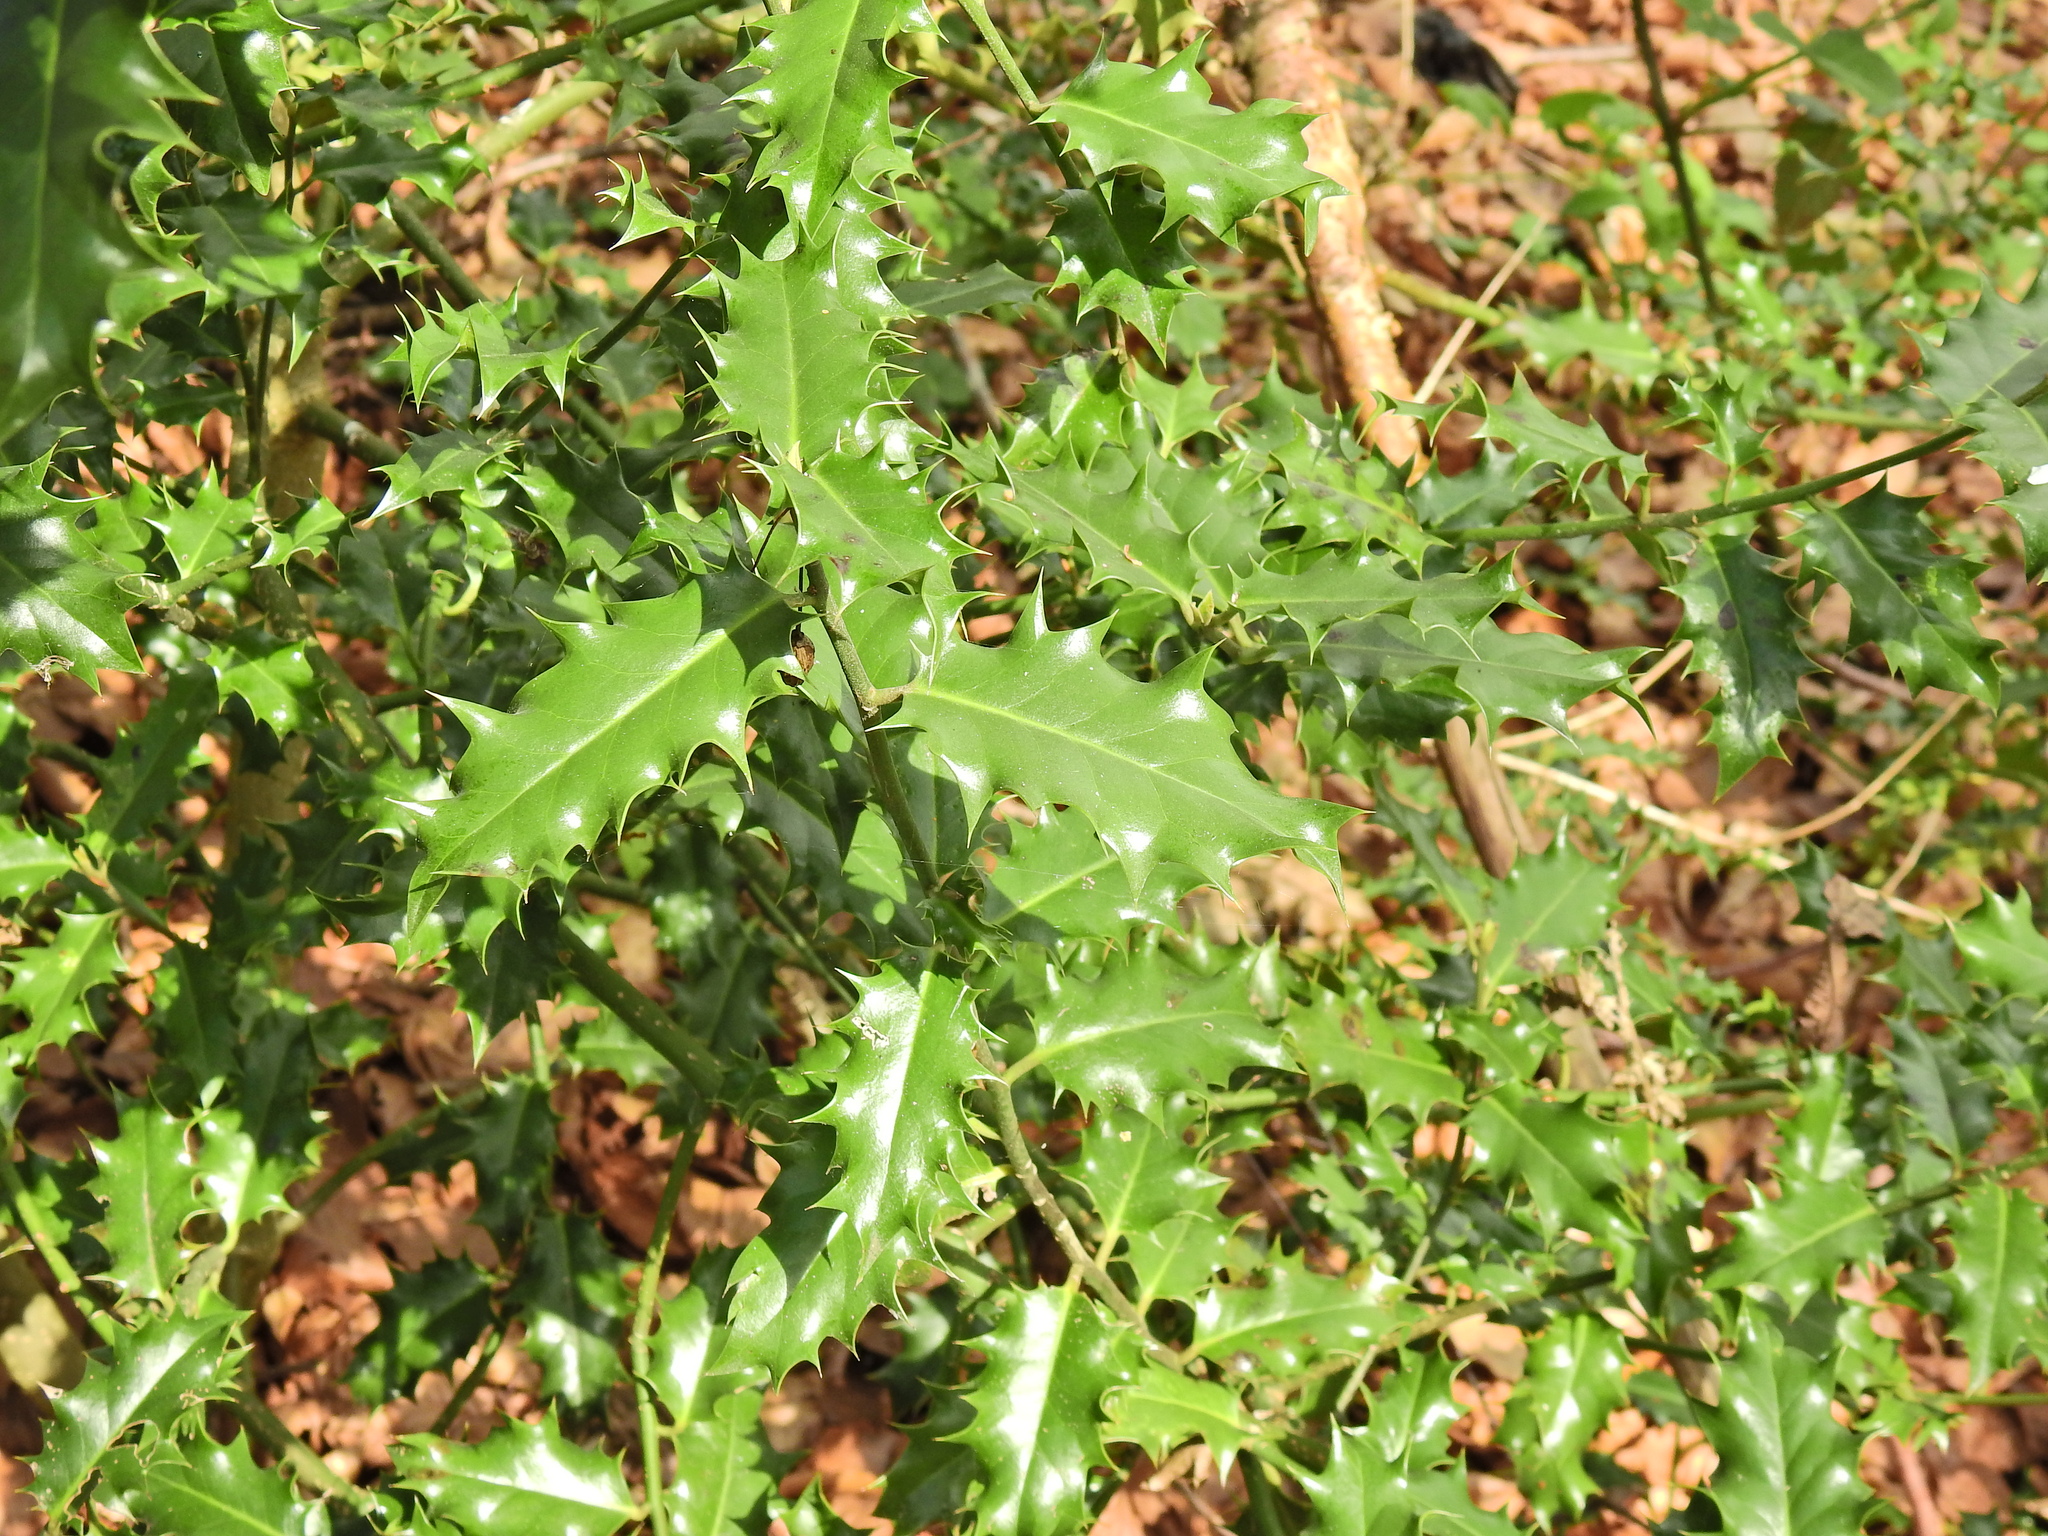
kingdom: Plantae
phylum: Tracheophyta
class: Magnoliopsida
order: Aquifoliales
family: Aquifoliaceae
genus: Ilex
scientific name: Ilex aquifolium
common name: English holly
